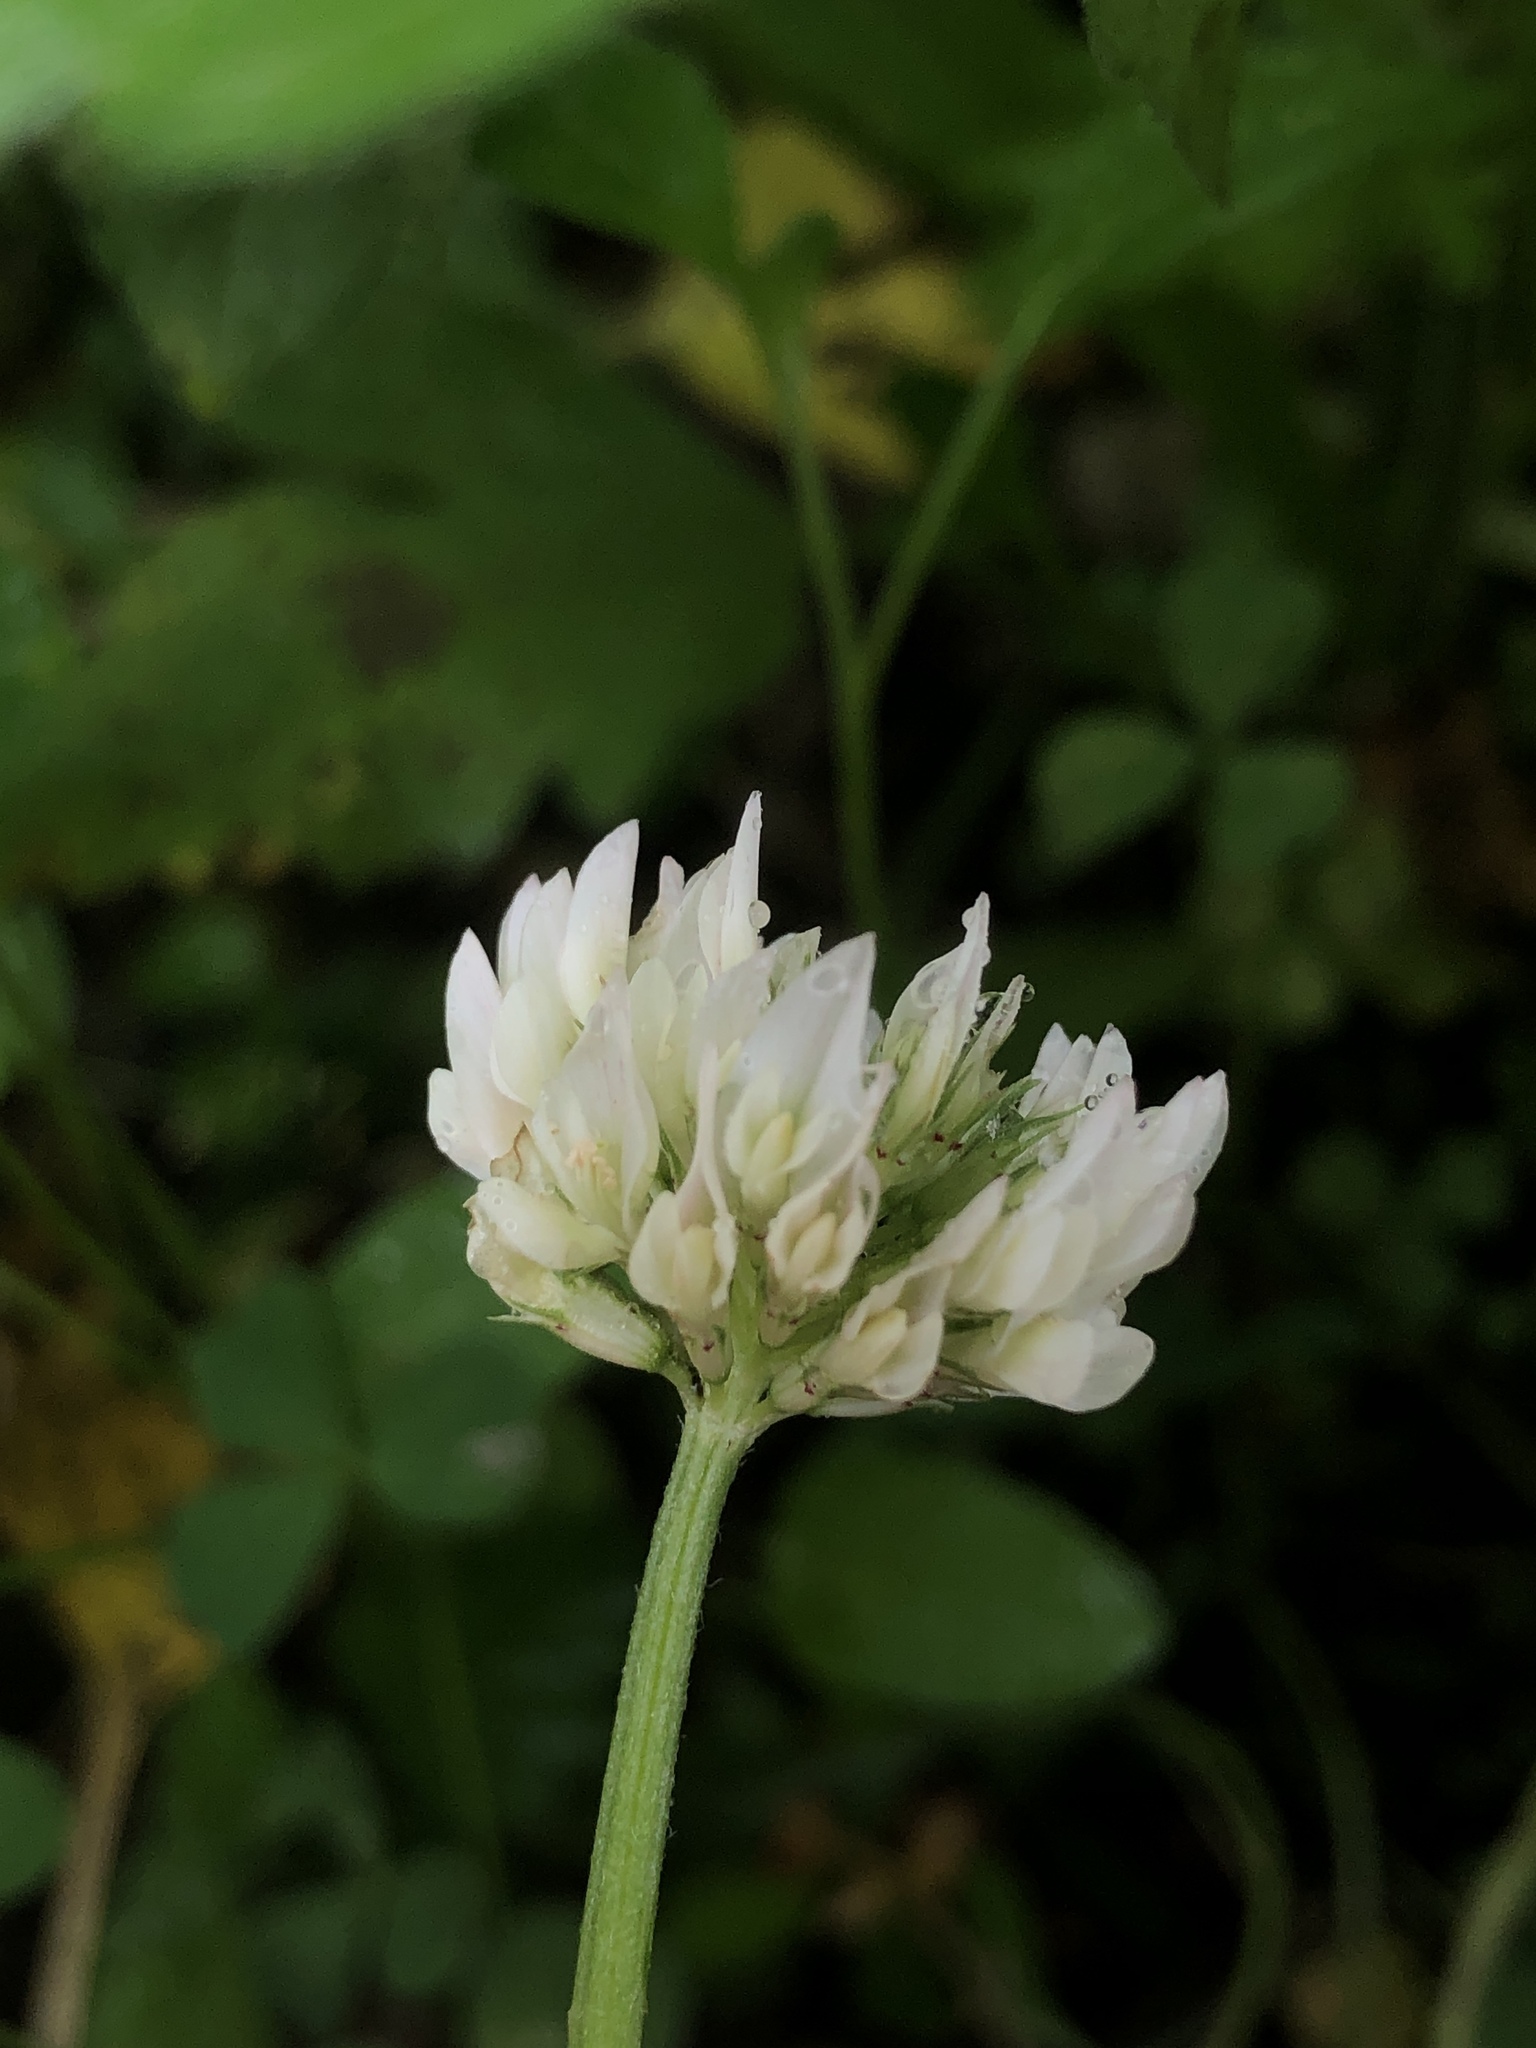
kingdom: Plantae
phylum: Tracheophyta
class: Magnoliopsida
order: Fabales
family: Fabaceae
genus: Trifolium
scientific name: Trifolium repens
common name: White clover
